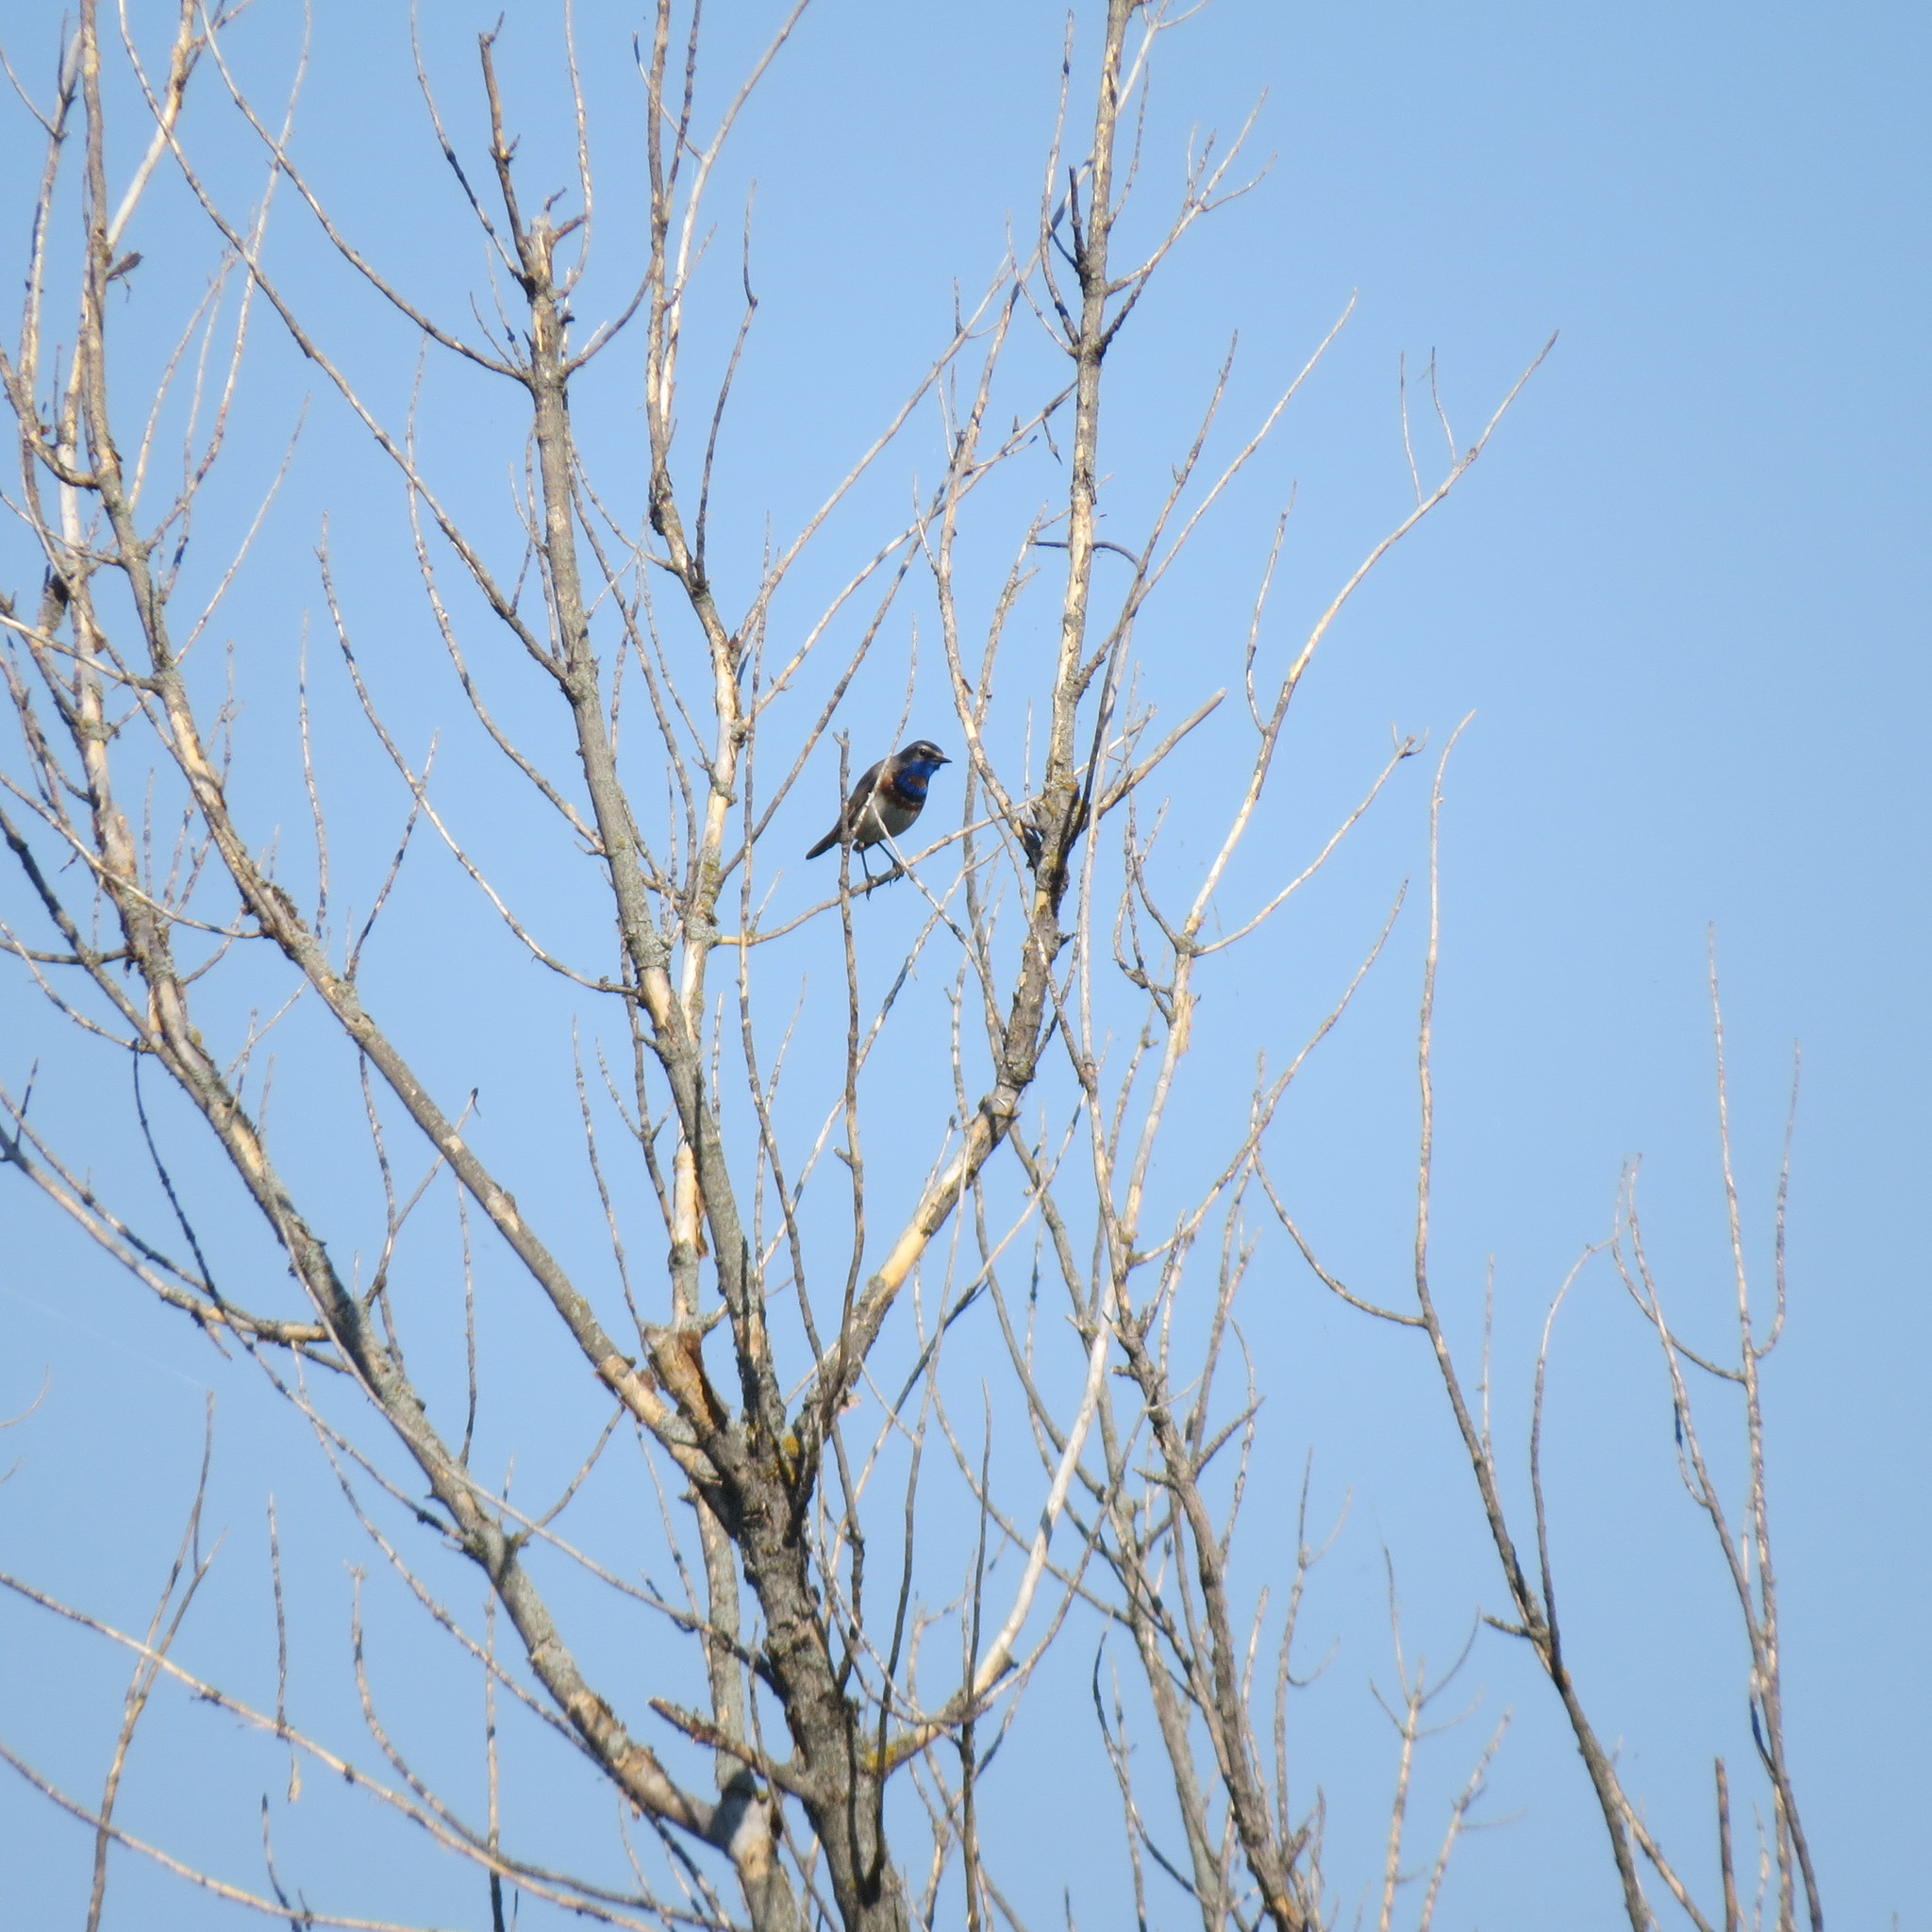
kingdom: Animalia
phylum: Chordata
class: Aves
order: Passeriformes
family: Muscicapidae
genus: Luscinia
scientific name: Luscinia svecica
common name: Bluethroat
